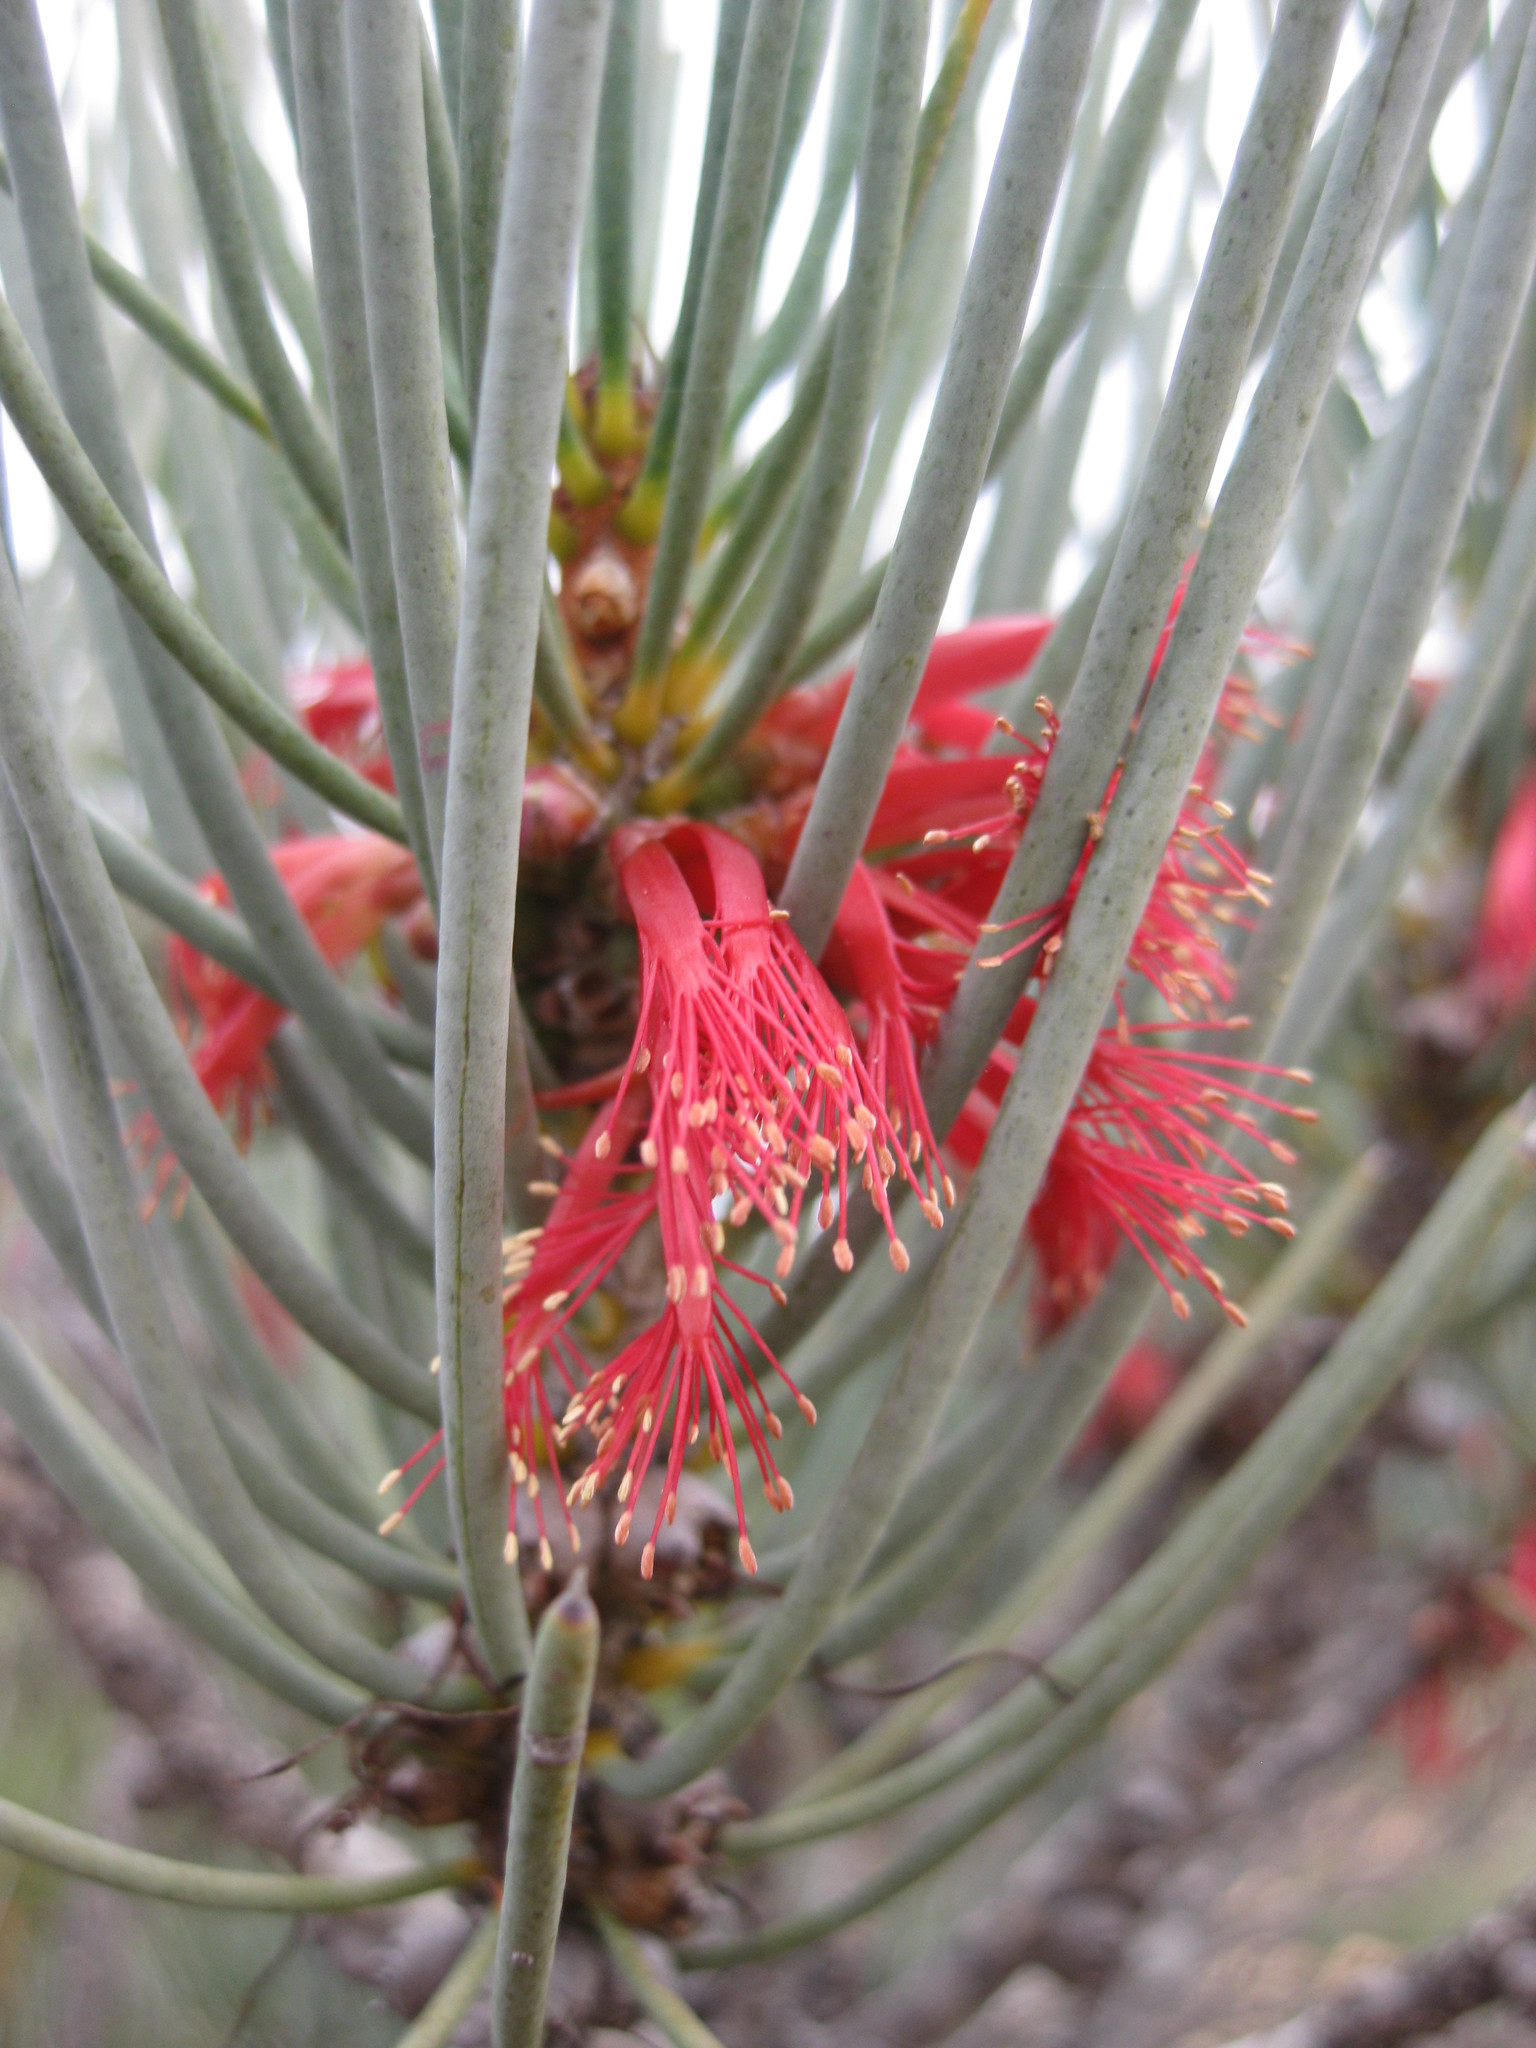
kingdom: Plantae
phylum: Tracheophyta
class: Magnoliopsida
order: Myrtales
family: Myrtaceae
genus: Melaleuca
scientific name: Melaleuca quadrifida
